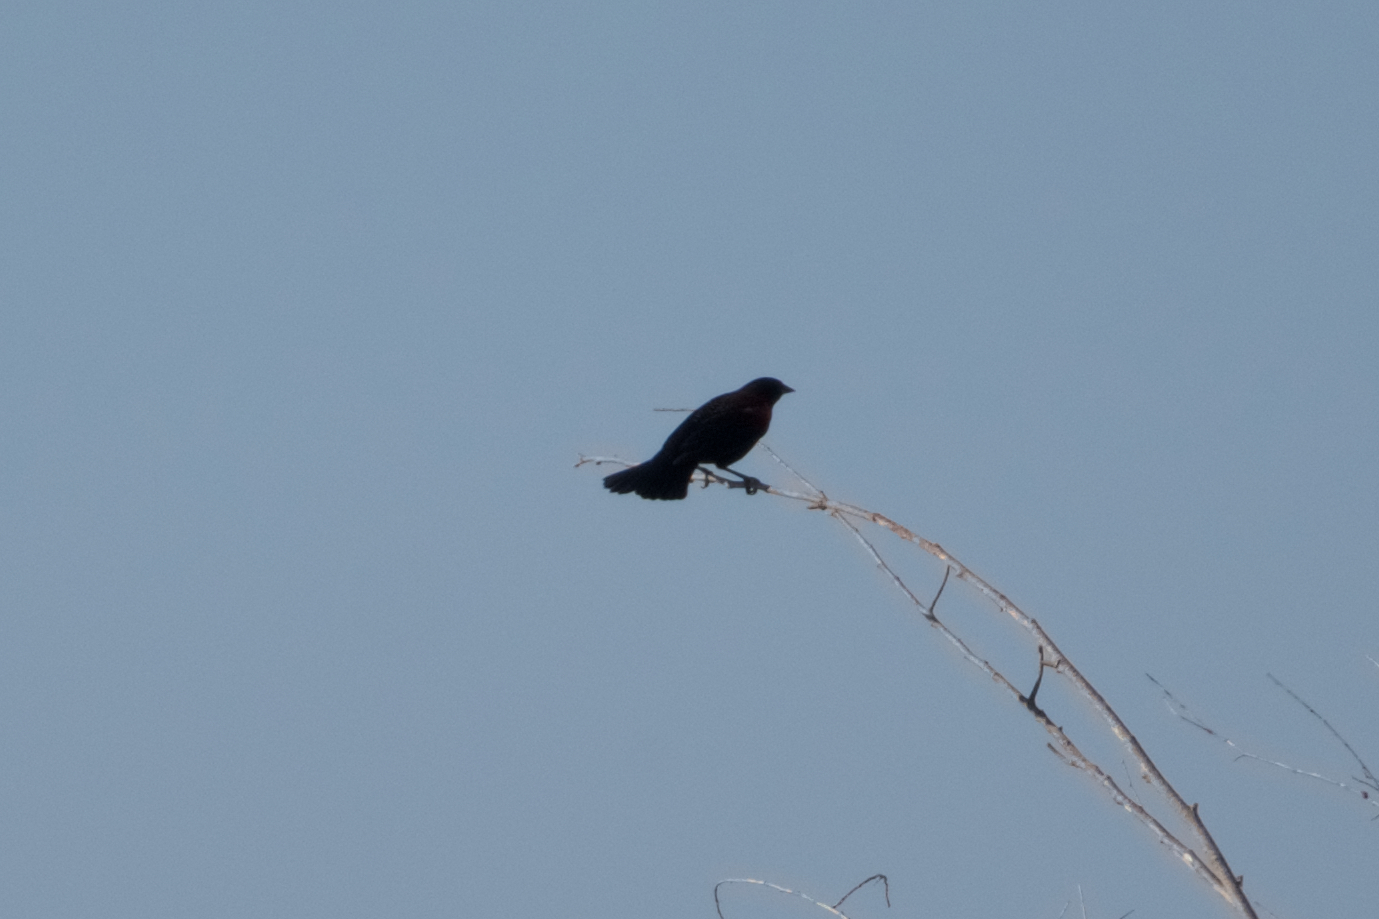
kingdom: Animalia
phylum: Chordata
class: Aves
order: Passeriformes
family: Icteridae
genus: Agelaius
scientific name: Agelaius phoeniceus
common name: Red-winged blackbird
